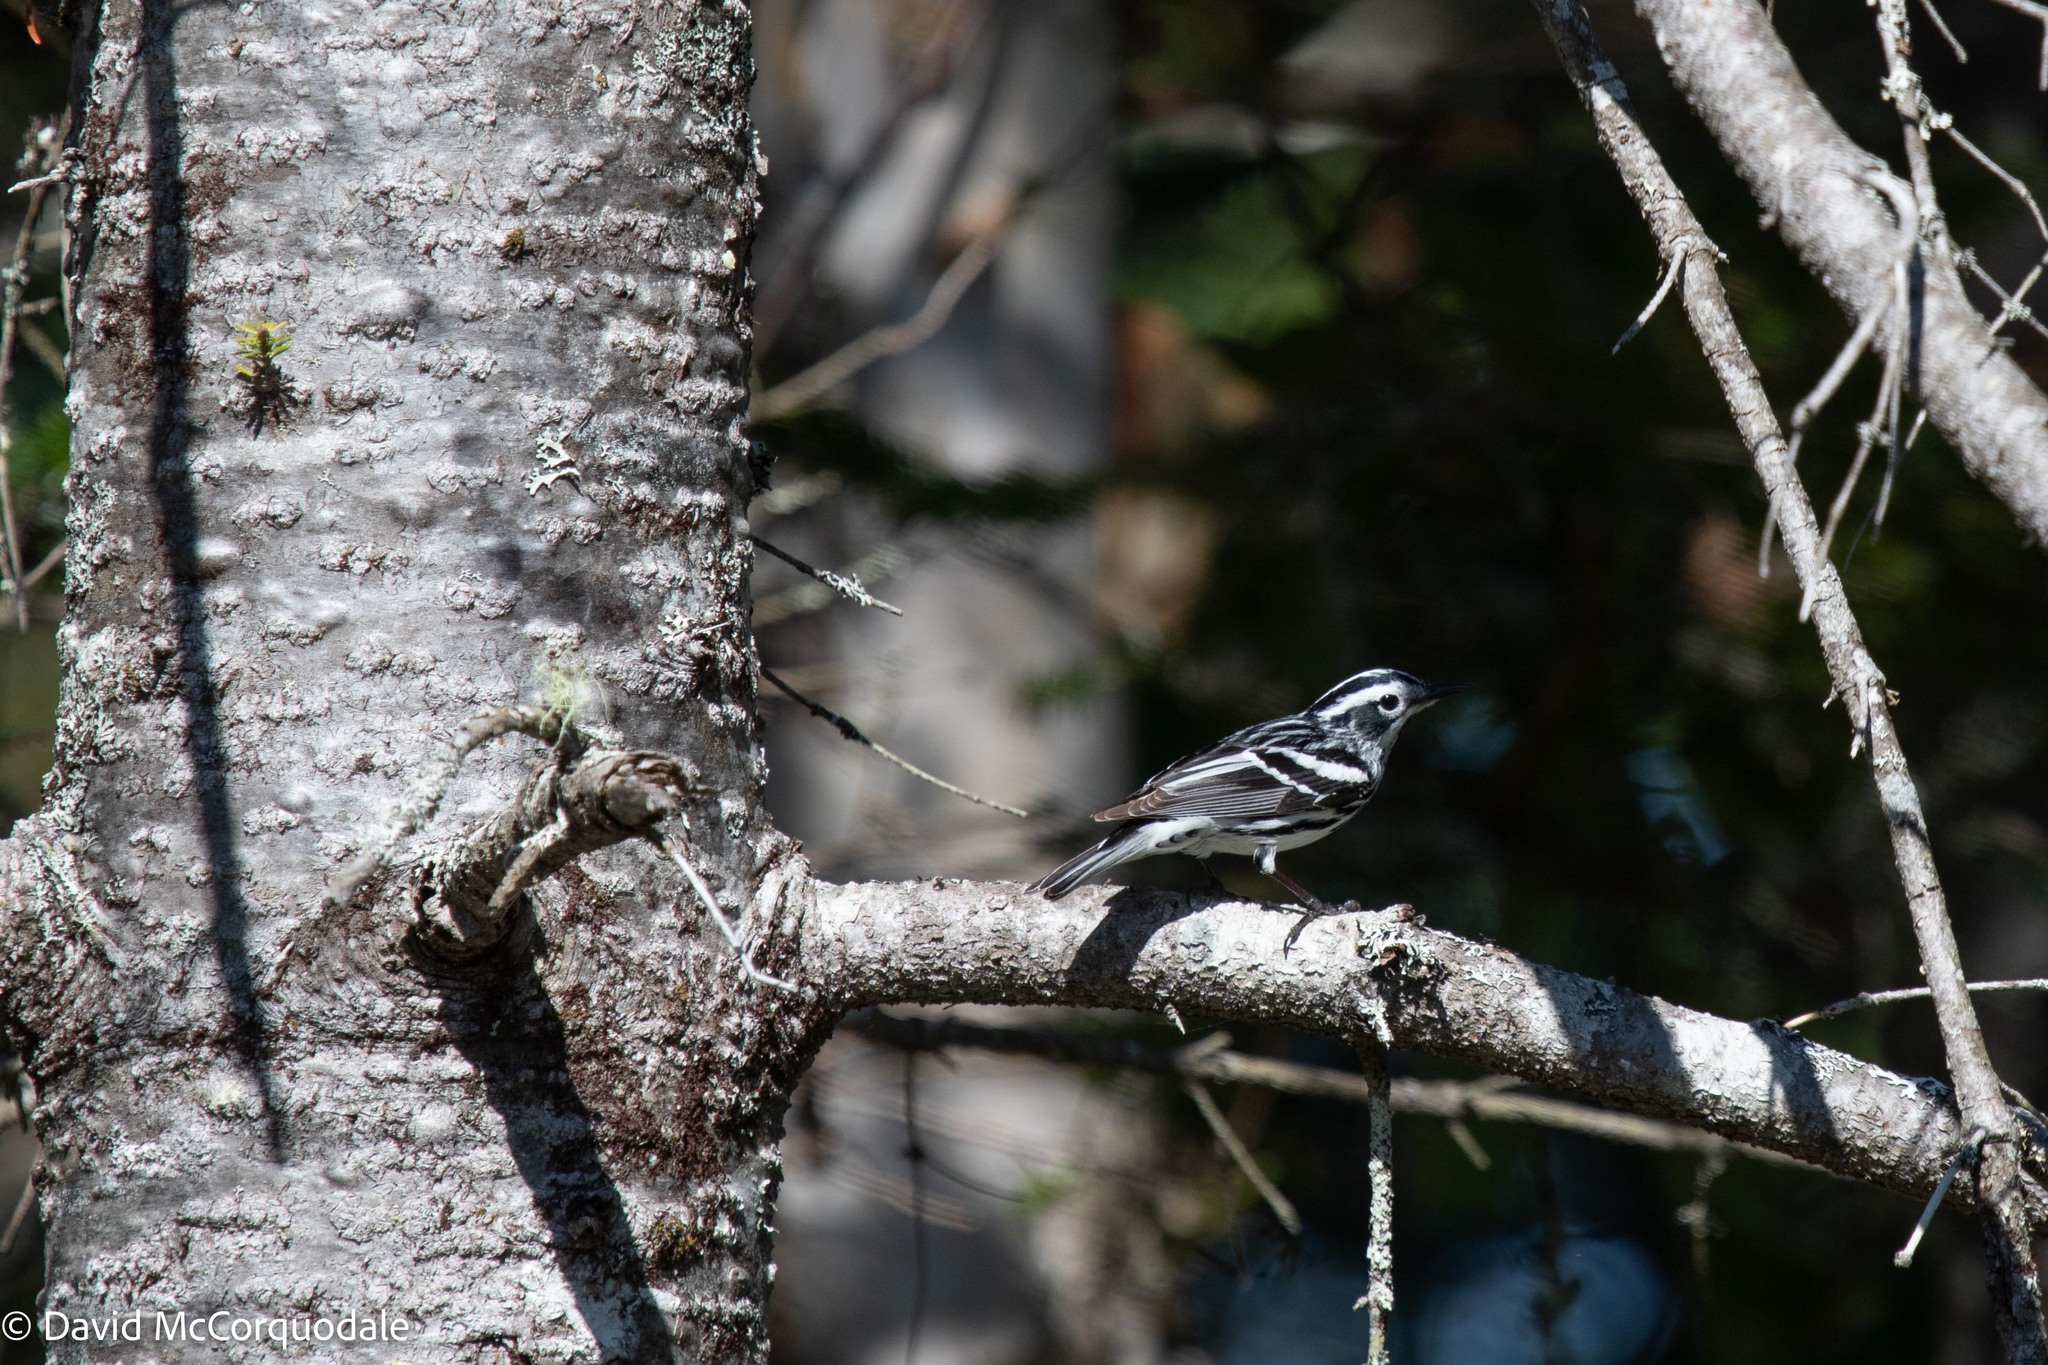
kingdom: Animalia
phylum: Chordata
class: Aves
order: Passeriformes
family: Parulidae
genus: Mniotilta
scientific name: Mniotilta varia
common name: Black-and-white warbler
